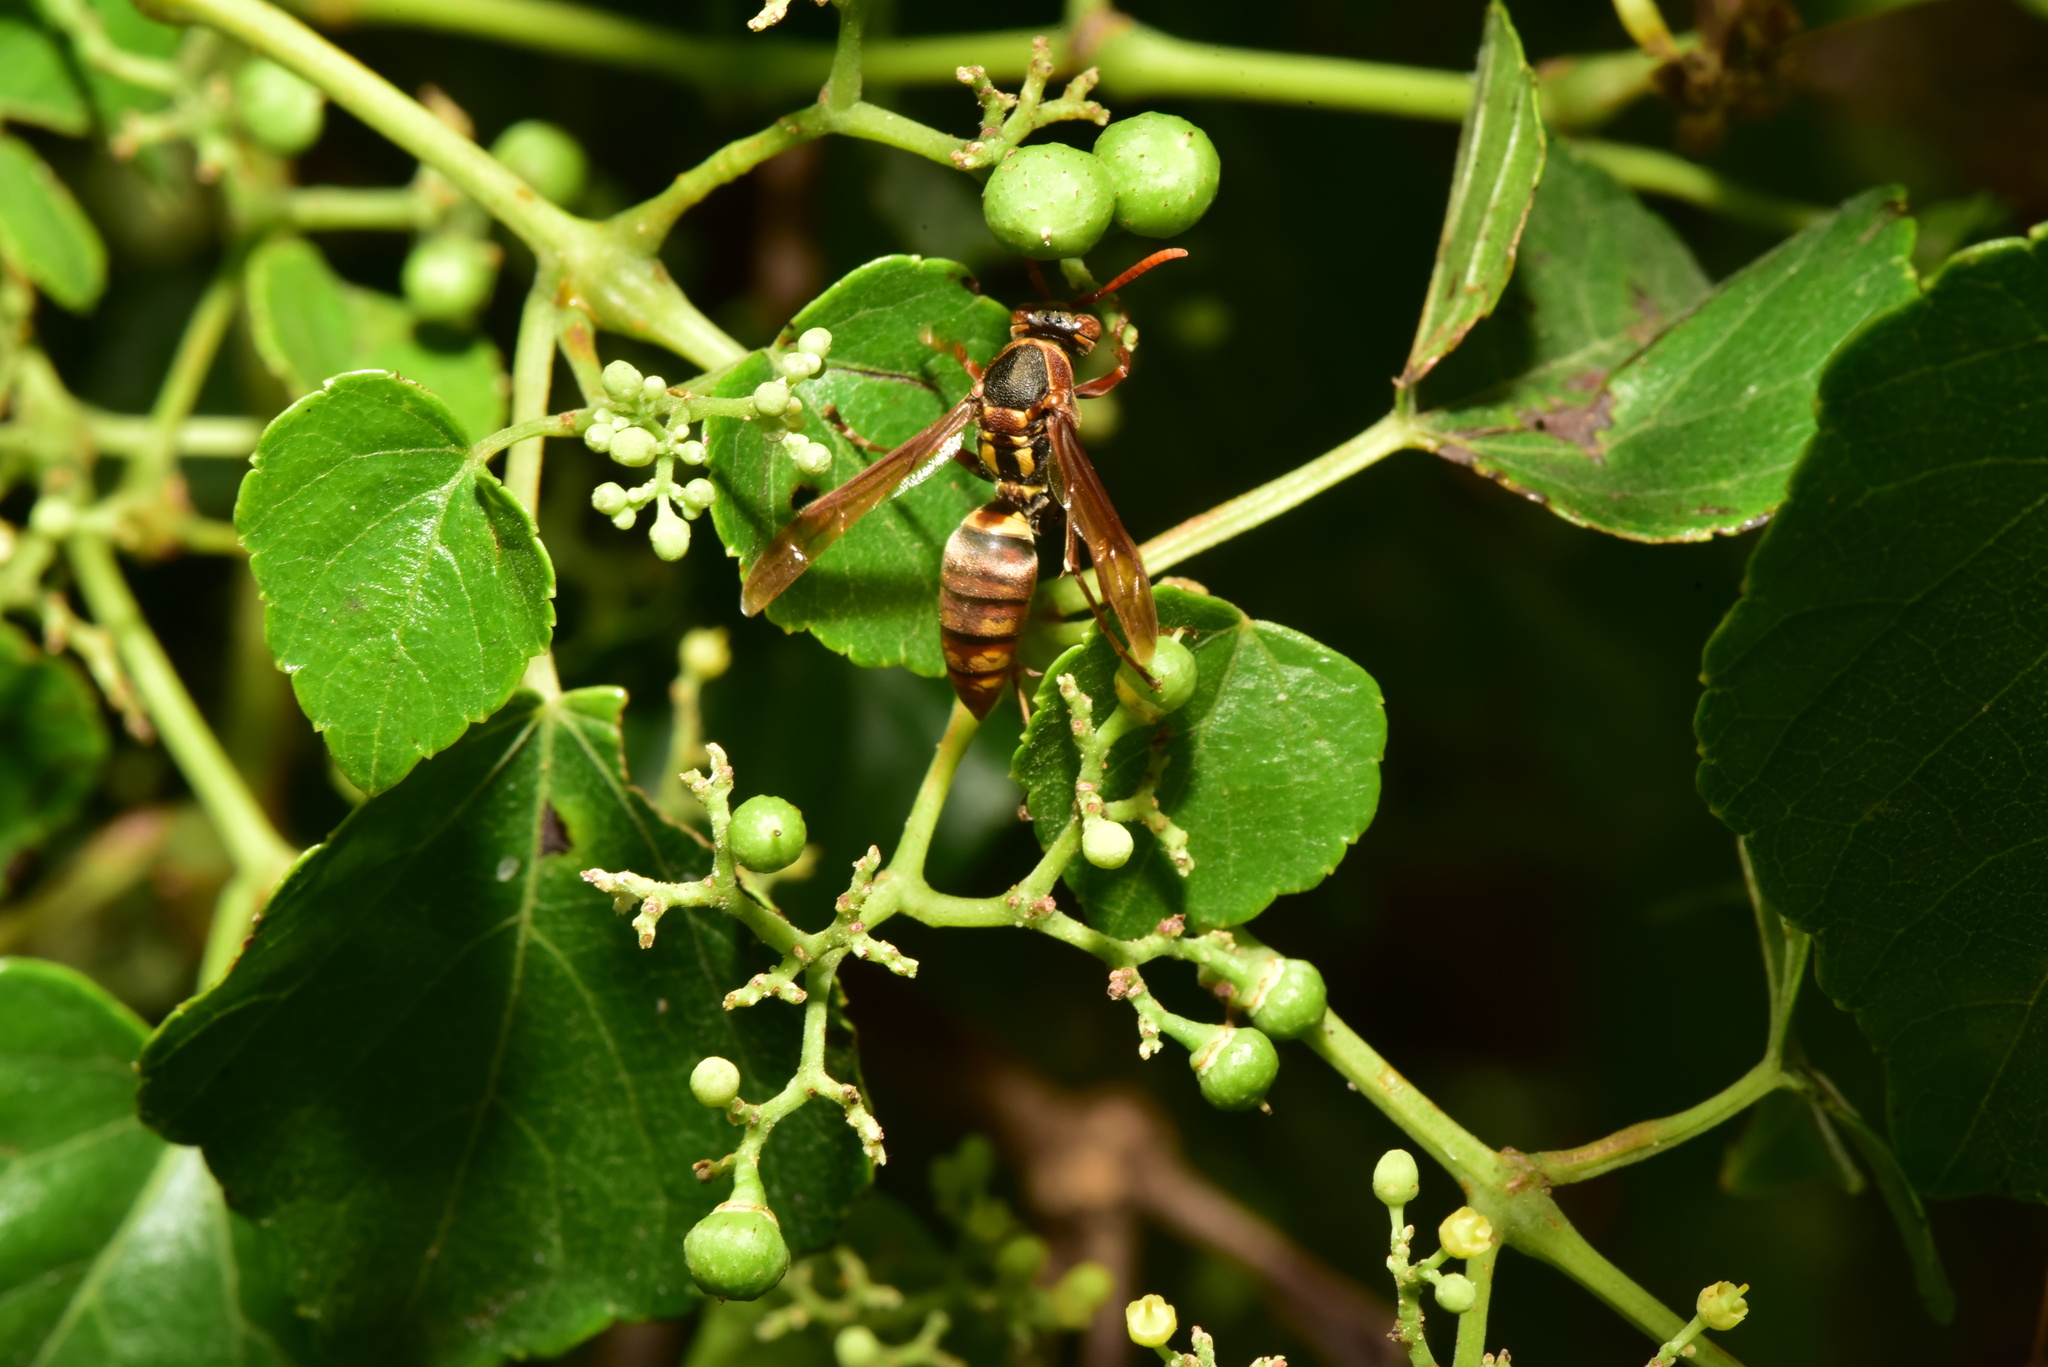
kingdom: Animalia
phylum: Arthropoda
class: Insecta
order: Hymenoptera
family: Eumenidae
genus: Polistes
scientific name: Polistes takasagonus
